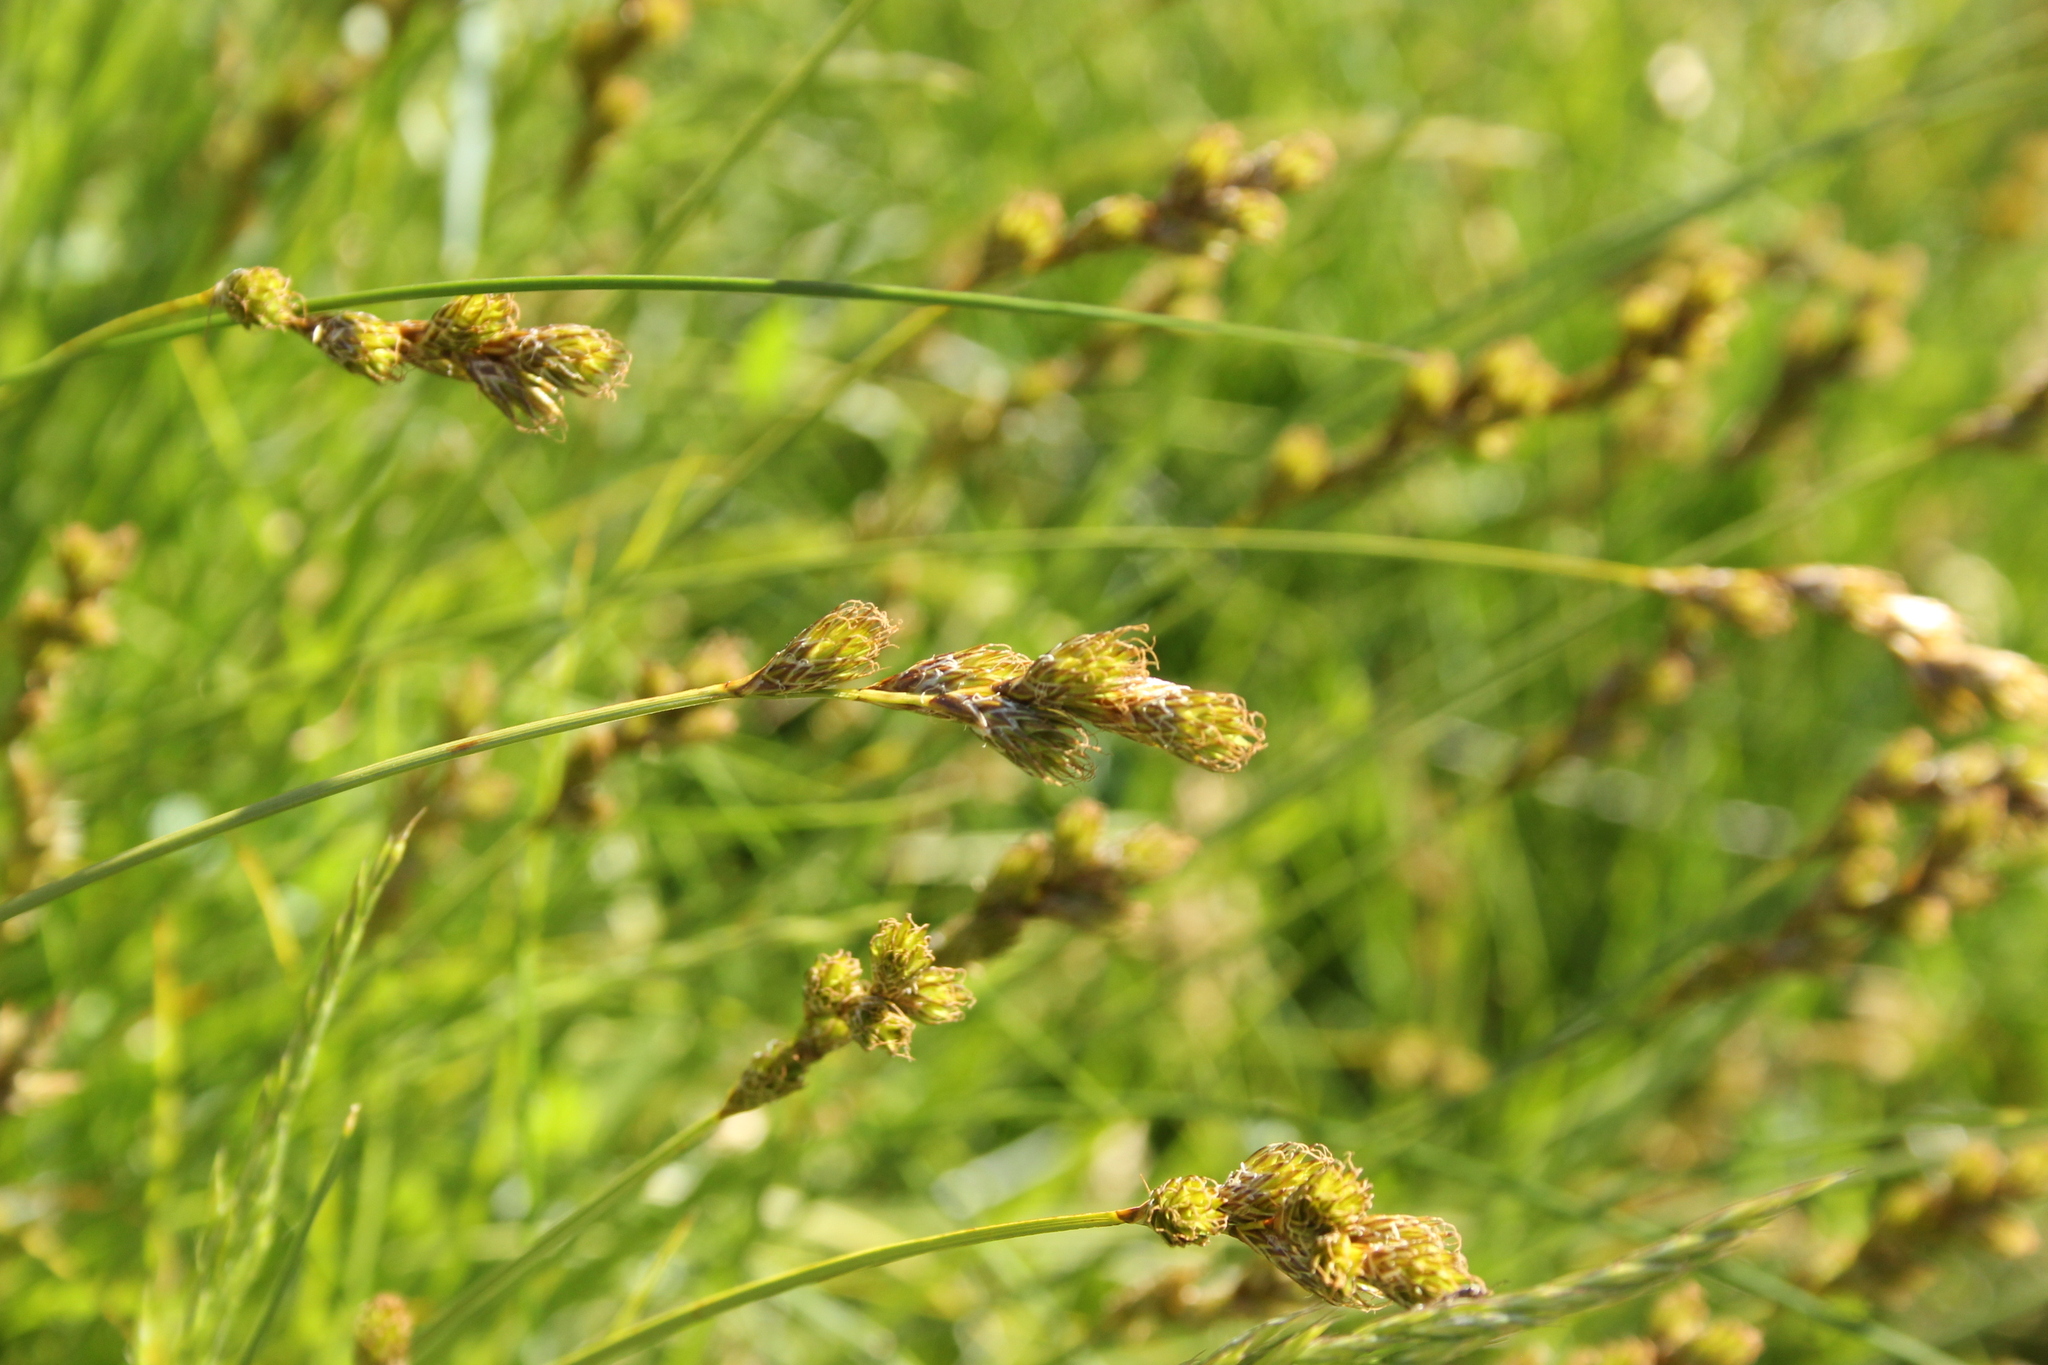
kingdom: Plantae
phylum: Tracheophyta
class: Liliopsida
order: Poales
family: Cyperaceae
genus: Carex
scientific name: Carex leporina
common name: Oval sedge
